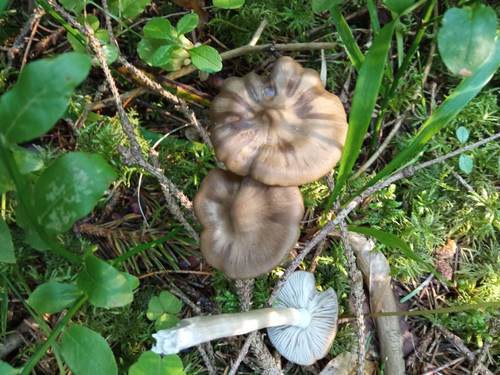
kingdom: Fungi
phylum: Basidiomycota
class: Agaricomycetes
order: Agaricales
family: Entolomataceae
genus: Entoloma
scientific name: Entoloma
